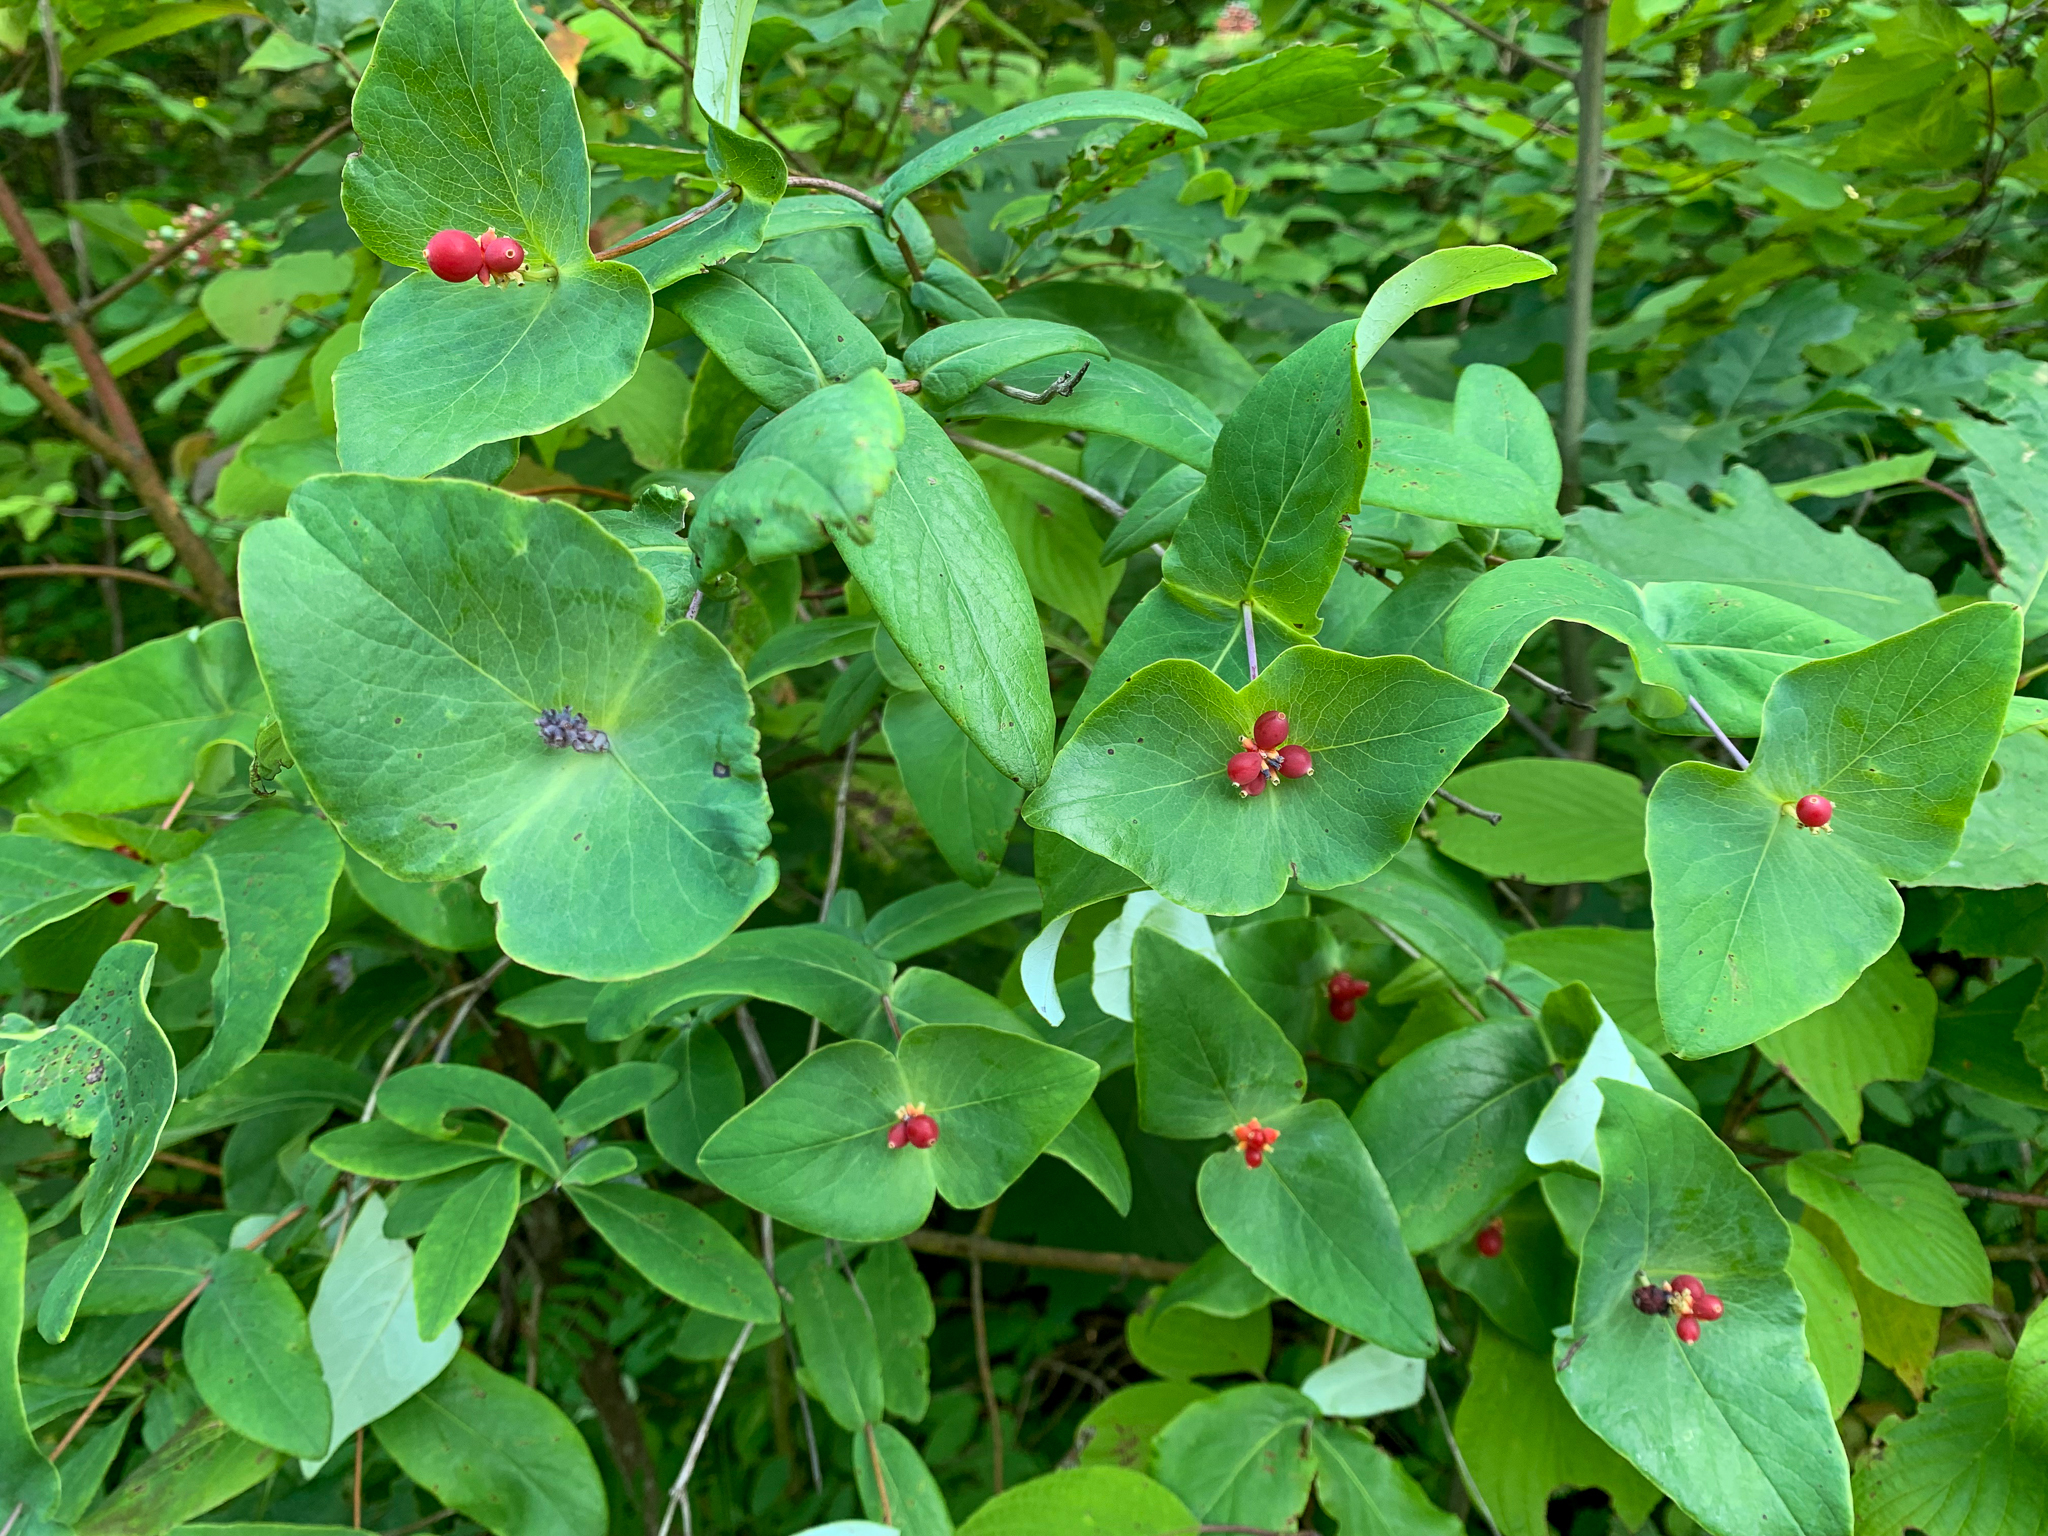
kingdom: Plantae
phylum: Tracheophyta
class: Magnoliopsida
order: Dipsacales
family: Caprifoliaceae
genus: Lonicera
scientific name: Lonicera dioica
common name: Limber honeysuckle
